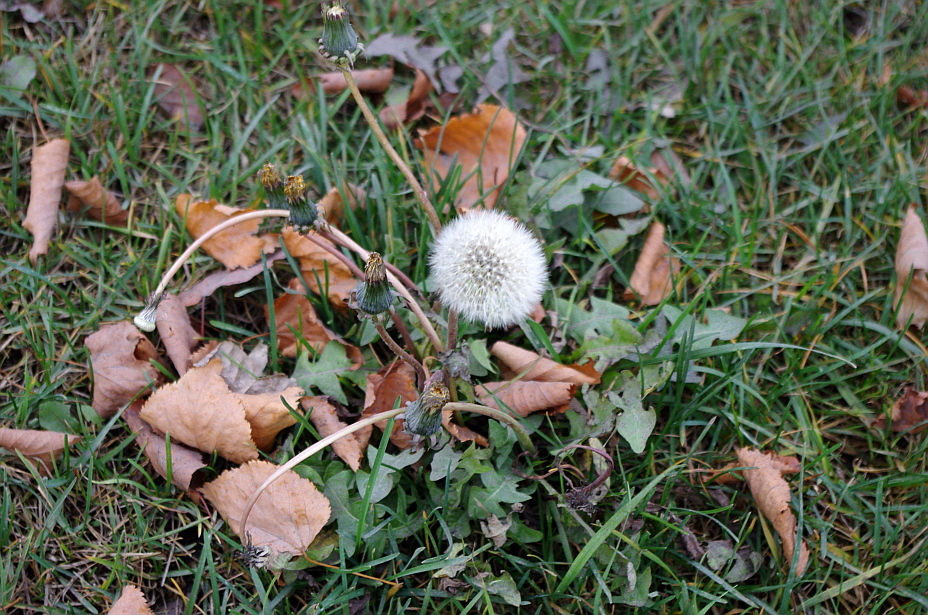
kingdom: Plantae
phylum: Tracheophyta
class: Magnoliopsida
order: Asterales
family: Asteraceae
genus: Taraxacum
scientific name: Taraxacum officinale
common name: Common dandelion
